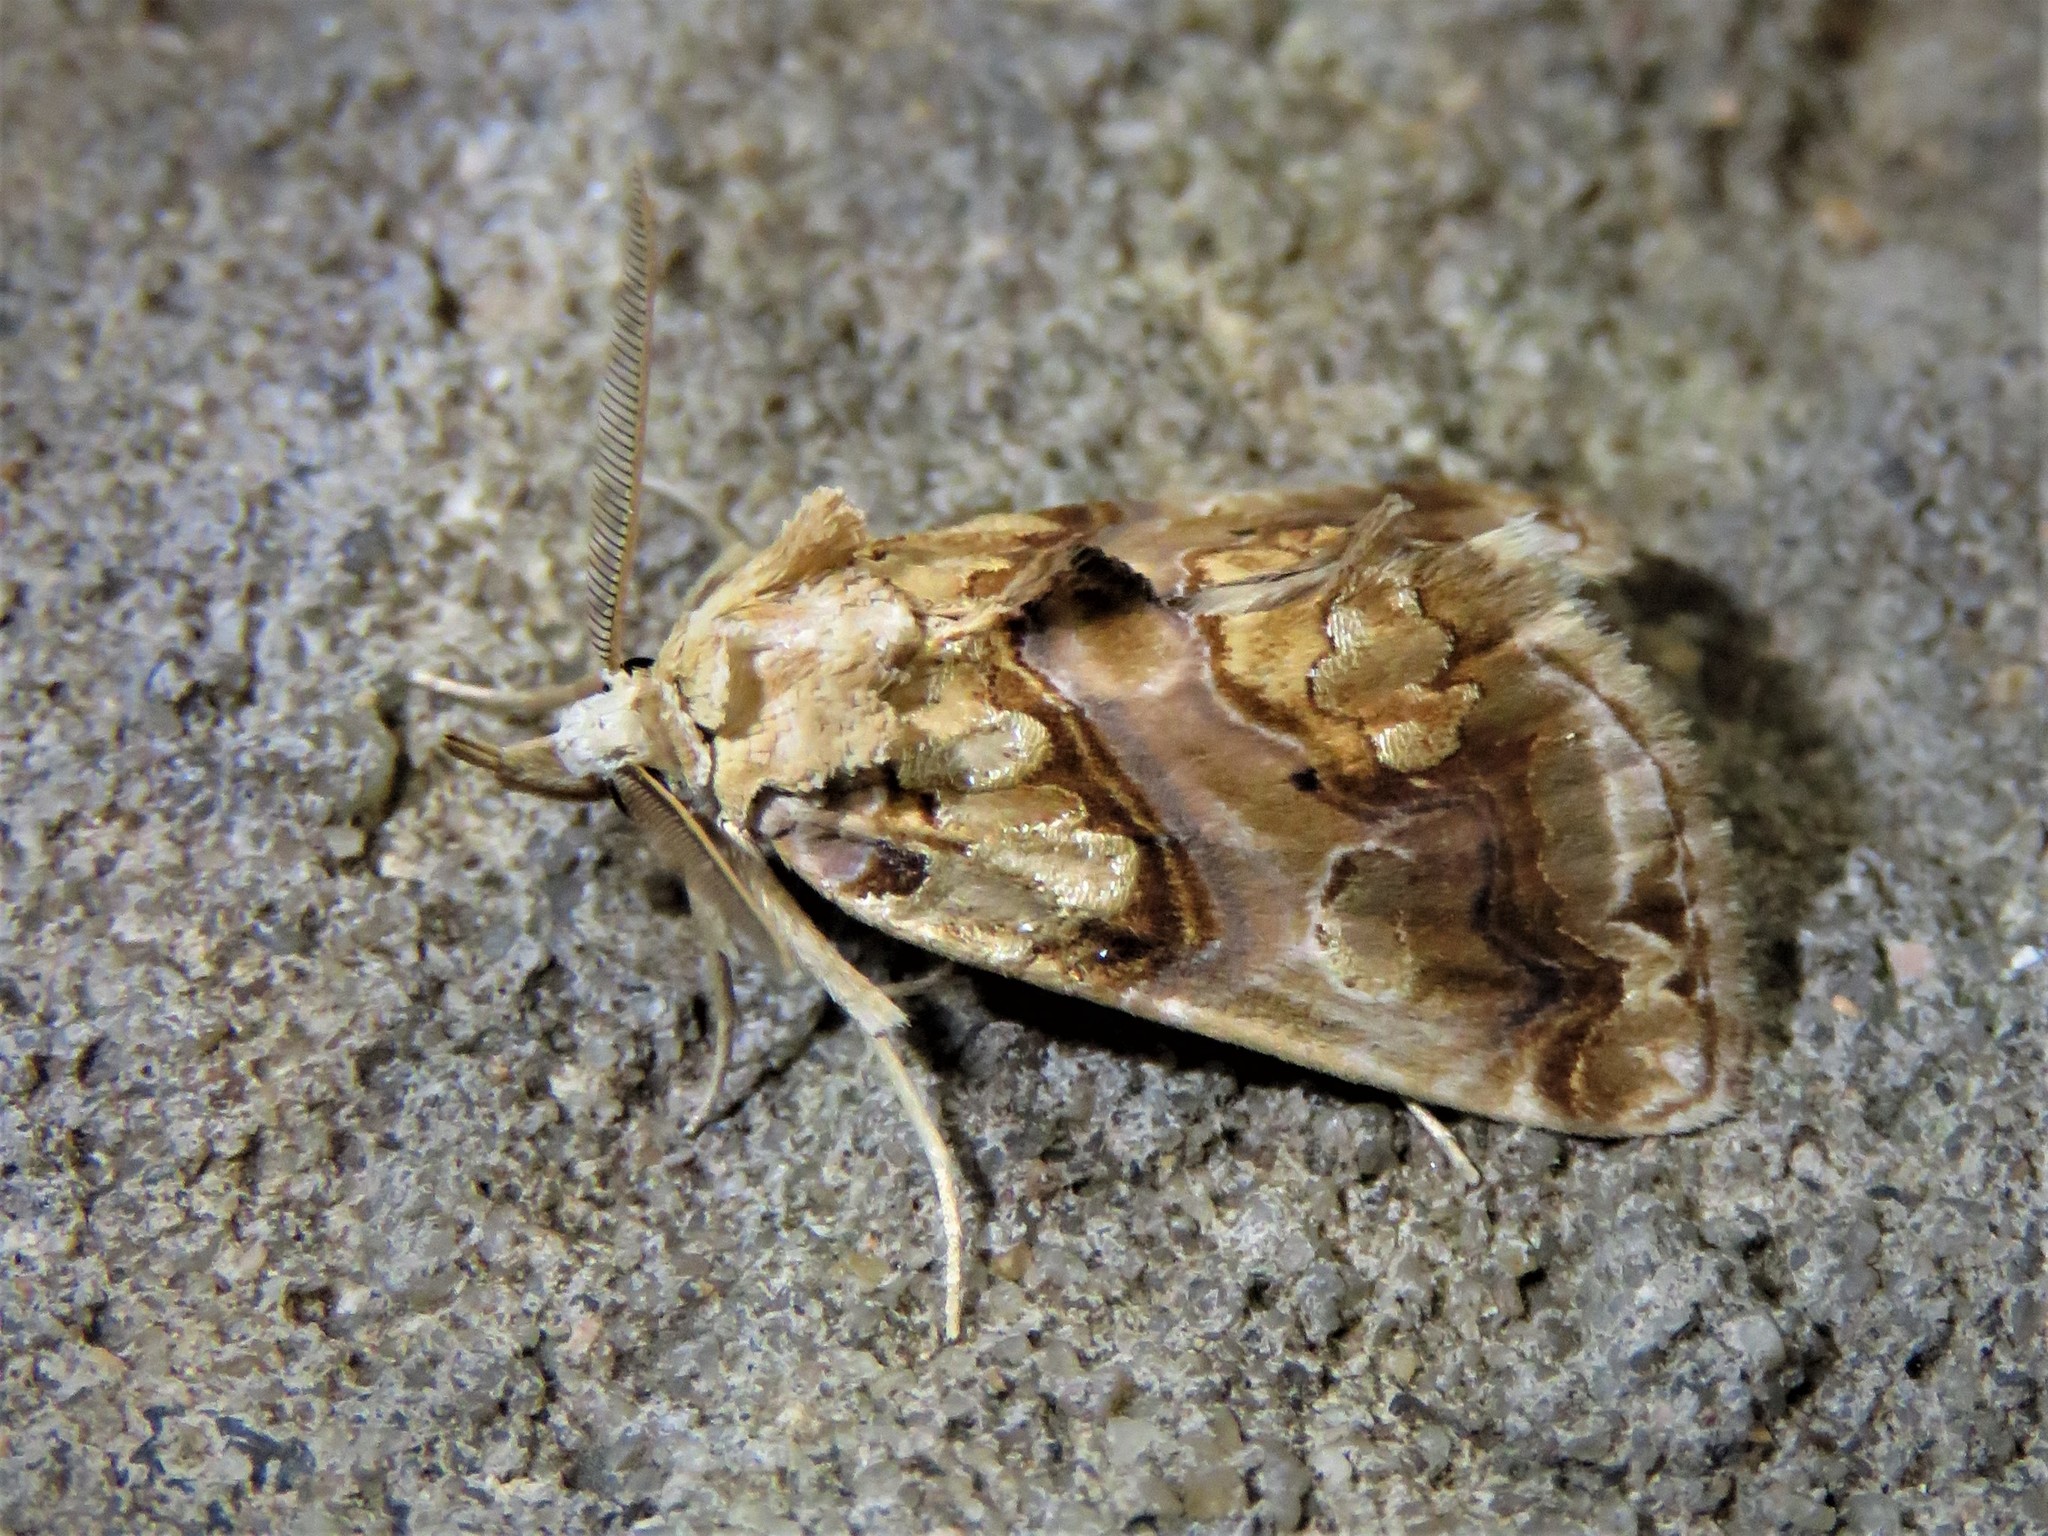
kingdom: Animalia
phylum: Arthropoda
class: Insecta
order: Lepidoptera
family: Erebidae
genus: Plusiodonta
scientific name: Plusiodonta compressipalpis
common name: Moonseed moth
